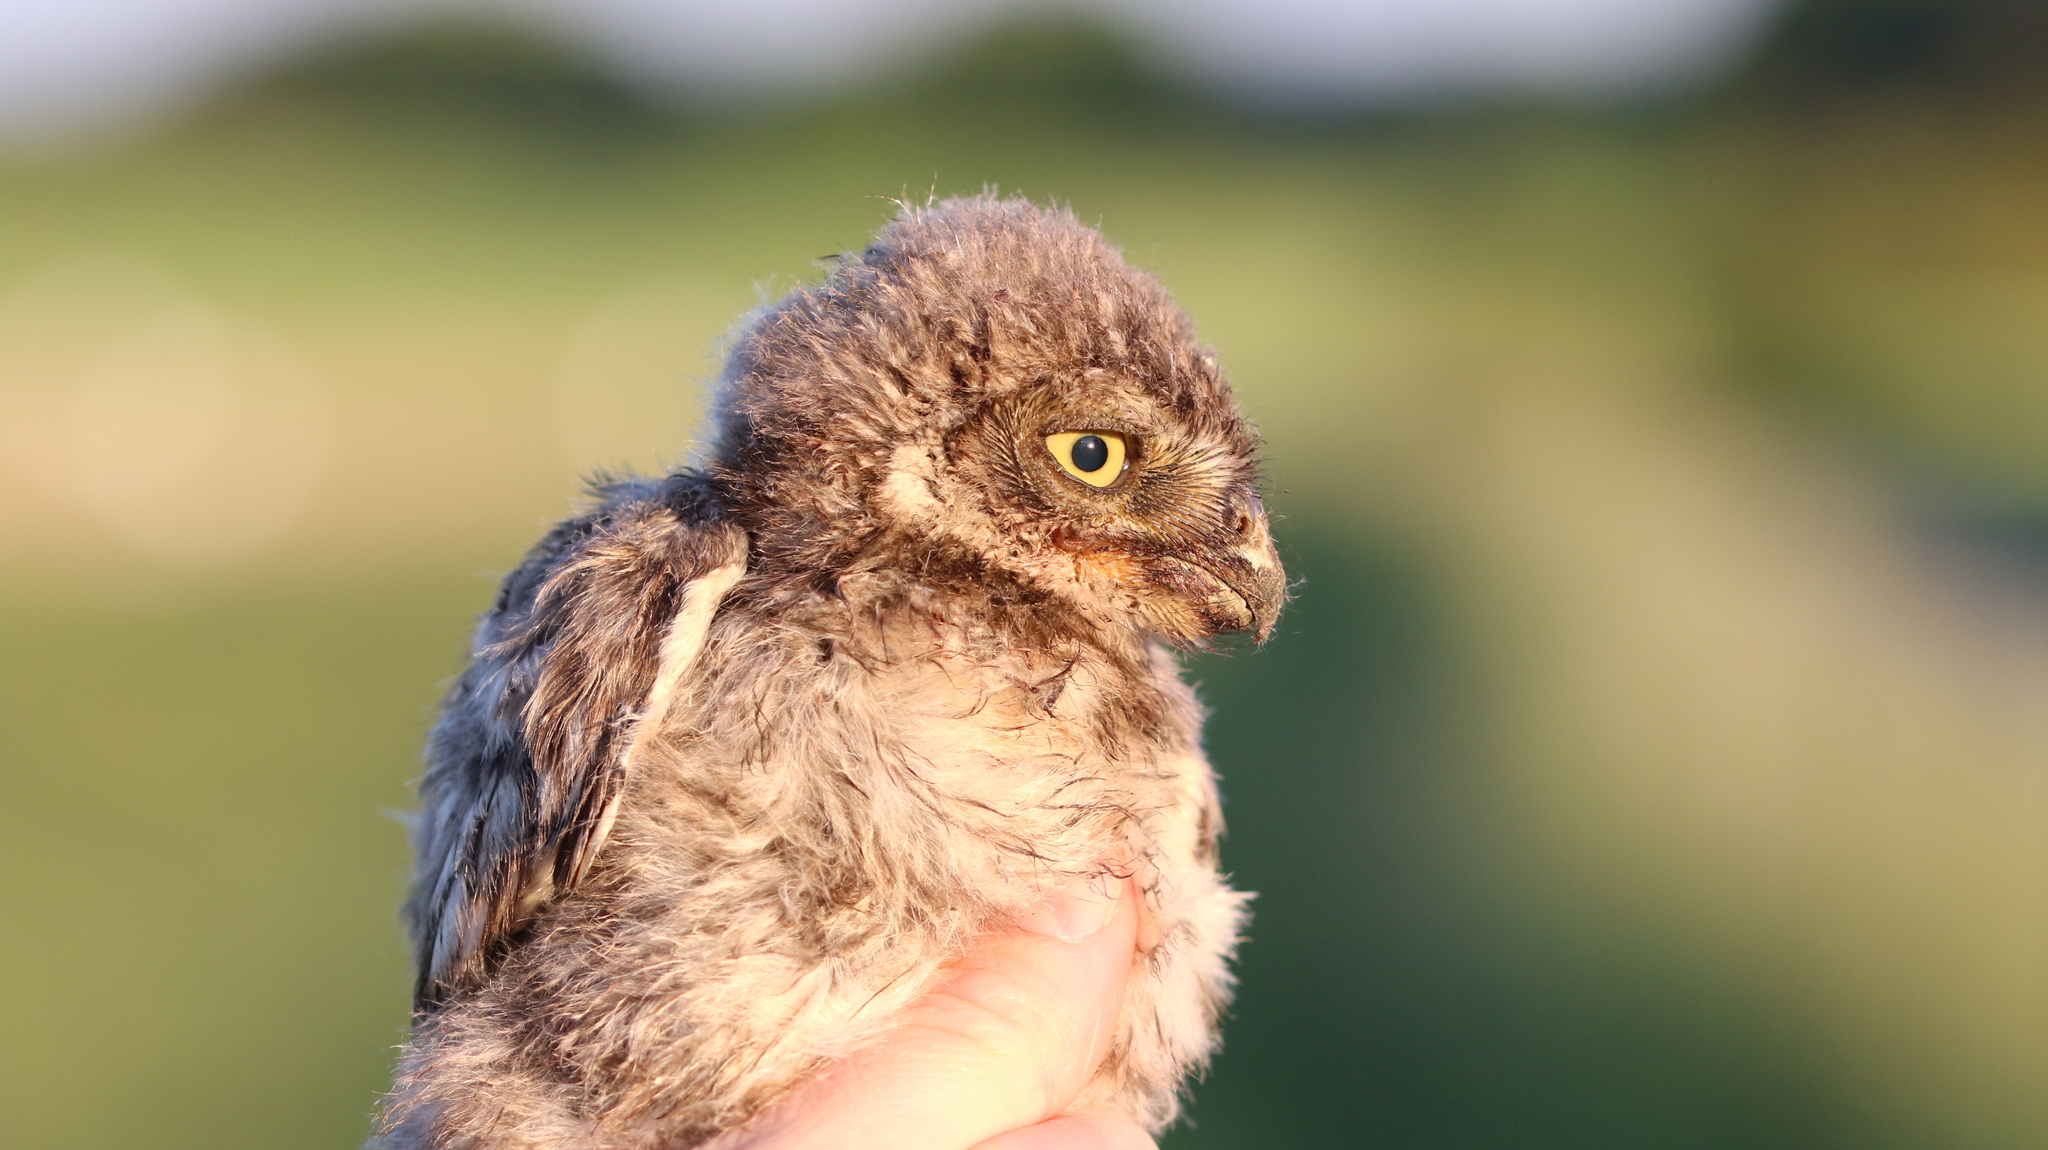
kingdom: Animalia
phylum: Chordata
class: Aves
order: Strigiformes
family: Strigidae
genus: Athene
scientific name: Athene noctua
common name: Little owl
